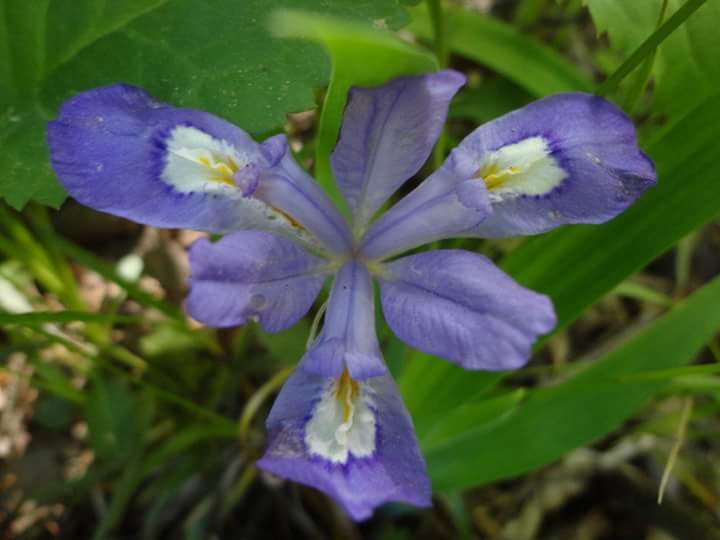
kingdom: Plantae
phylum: Tracheophyta
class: Liliopsida
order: Asparagales
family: Iridaceae
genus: Iris
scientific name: Iris cristata
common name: Crested iris
